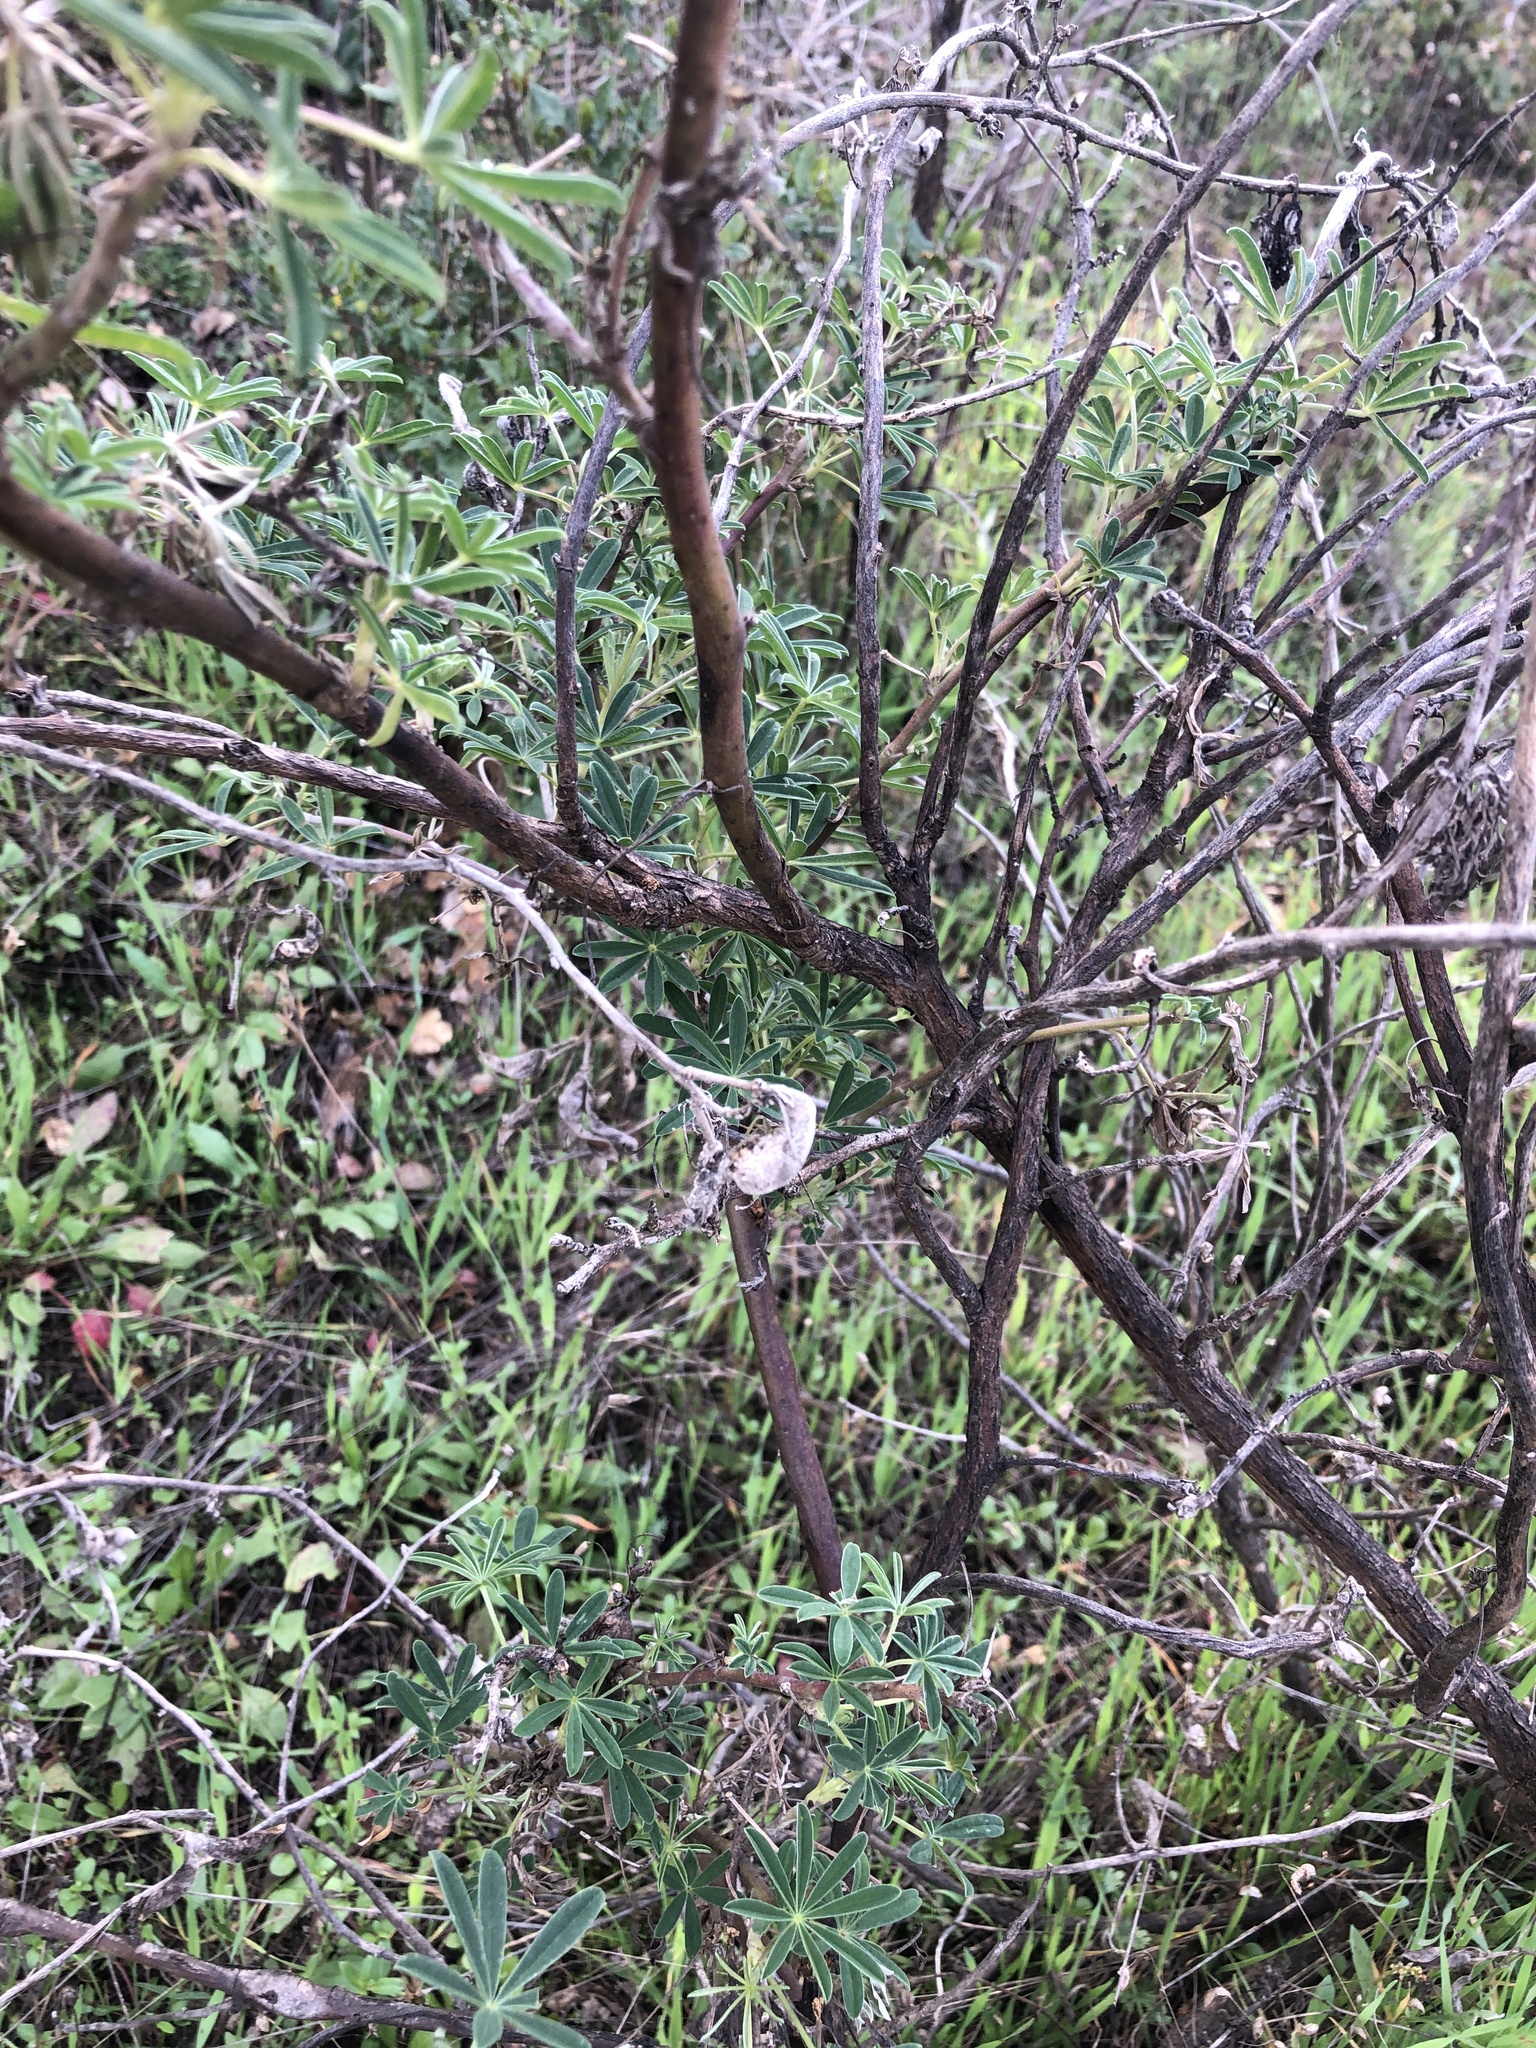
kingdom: Plantae
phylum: Tracheophyta
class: Magnoliopsida
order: Fabales
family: Fabaceae
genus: Lupinus
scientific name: Lupinus arboreus
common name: Yellow bush lupine
